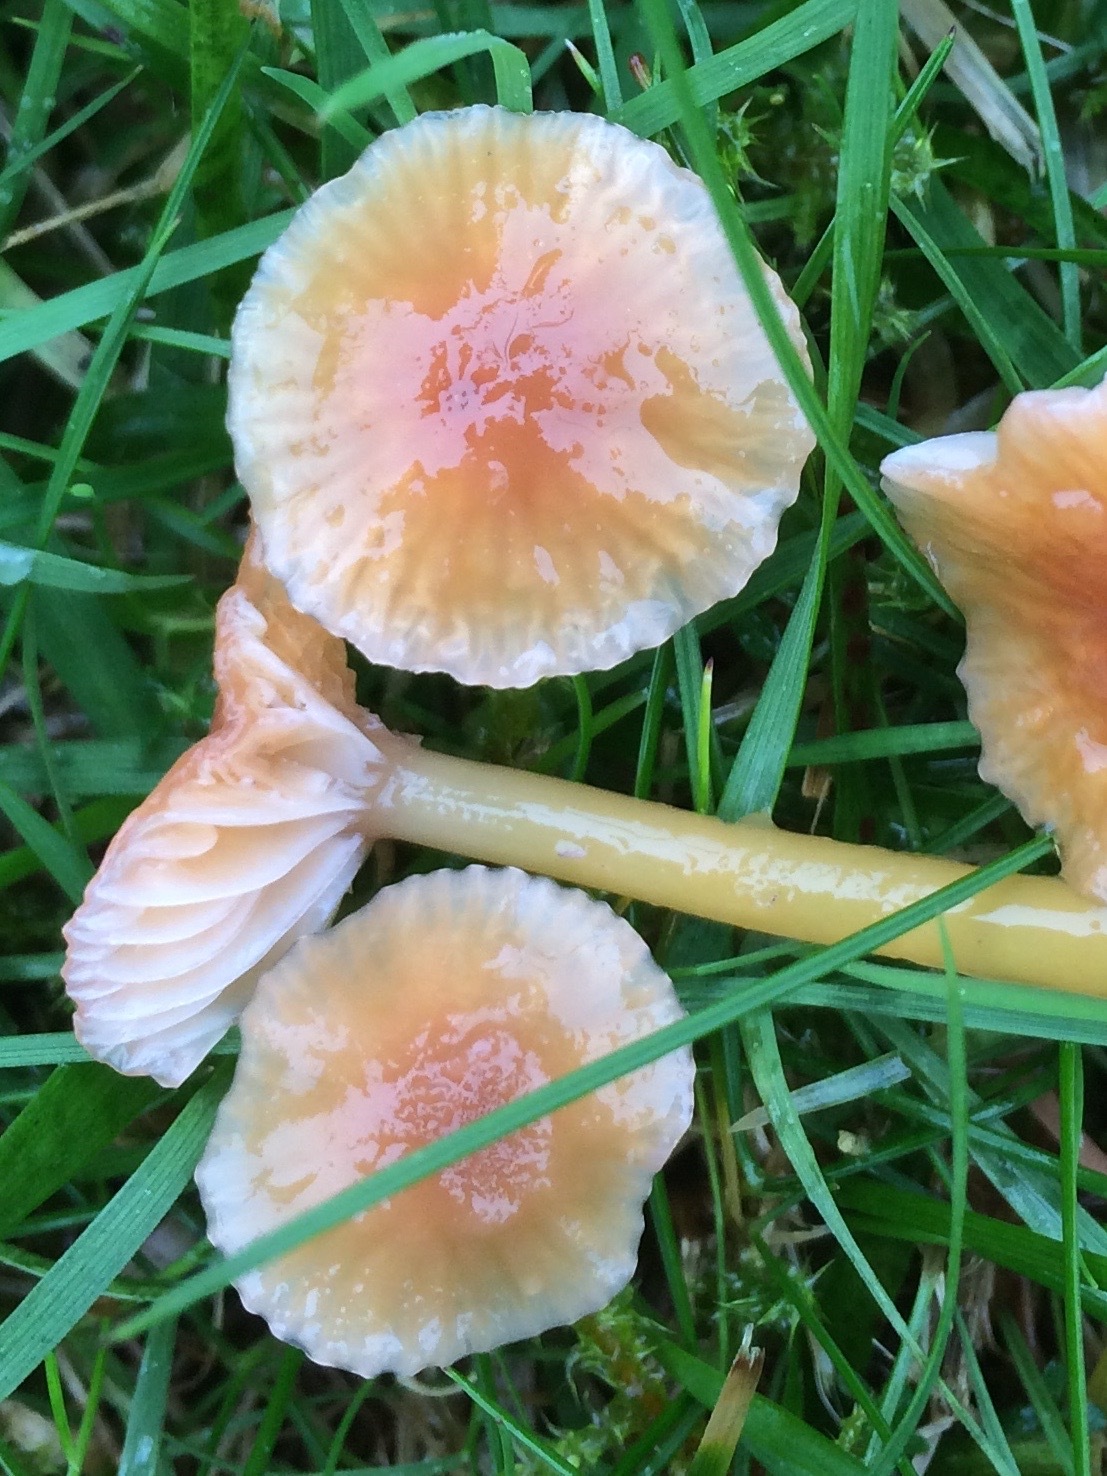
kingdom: Fungi
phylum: Basidiomycota
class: Agaricomycetes
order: Agaricales
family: Hygrophoraceae
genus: Gliophorus
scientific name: Gliophorus laetus
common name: Heath waxcap
